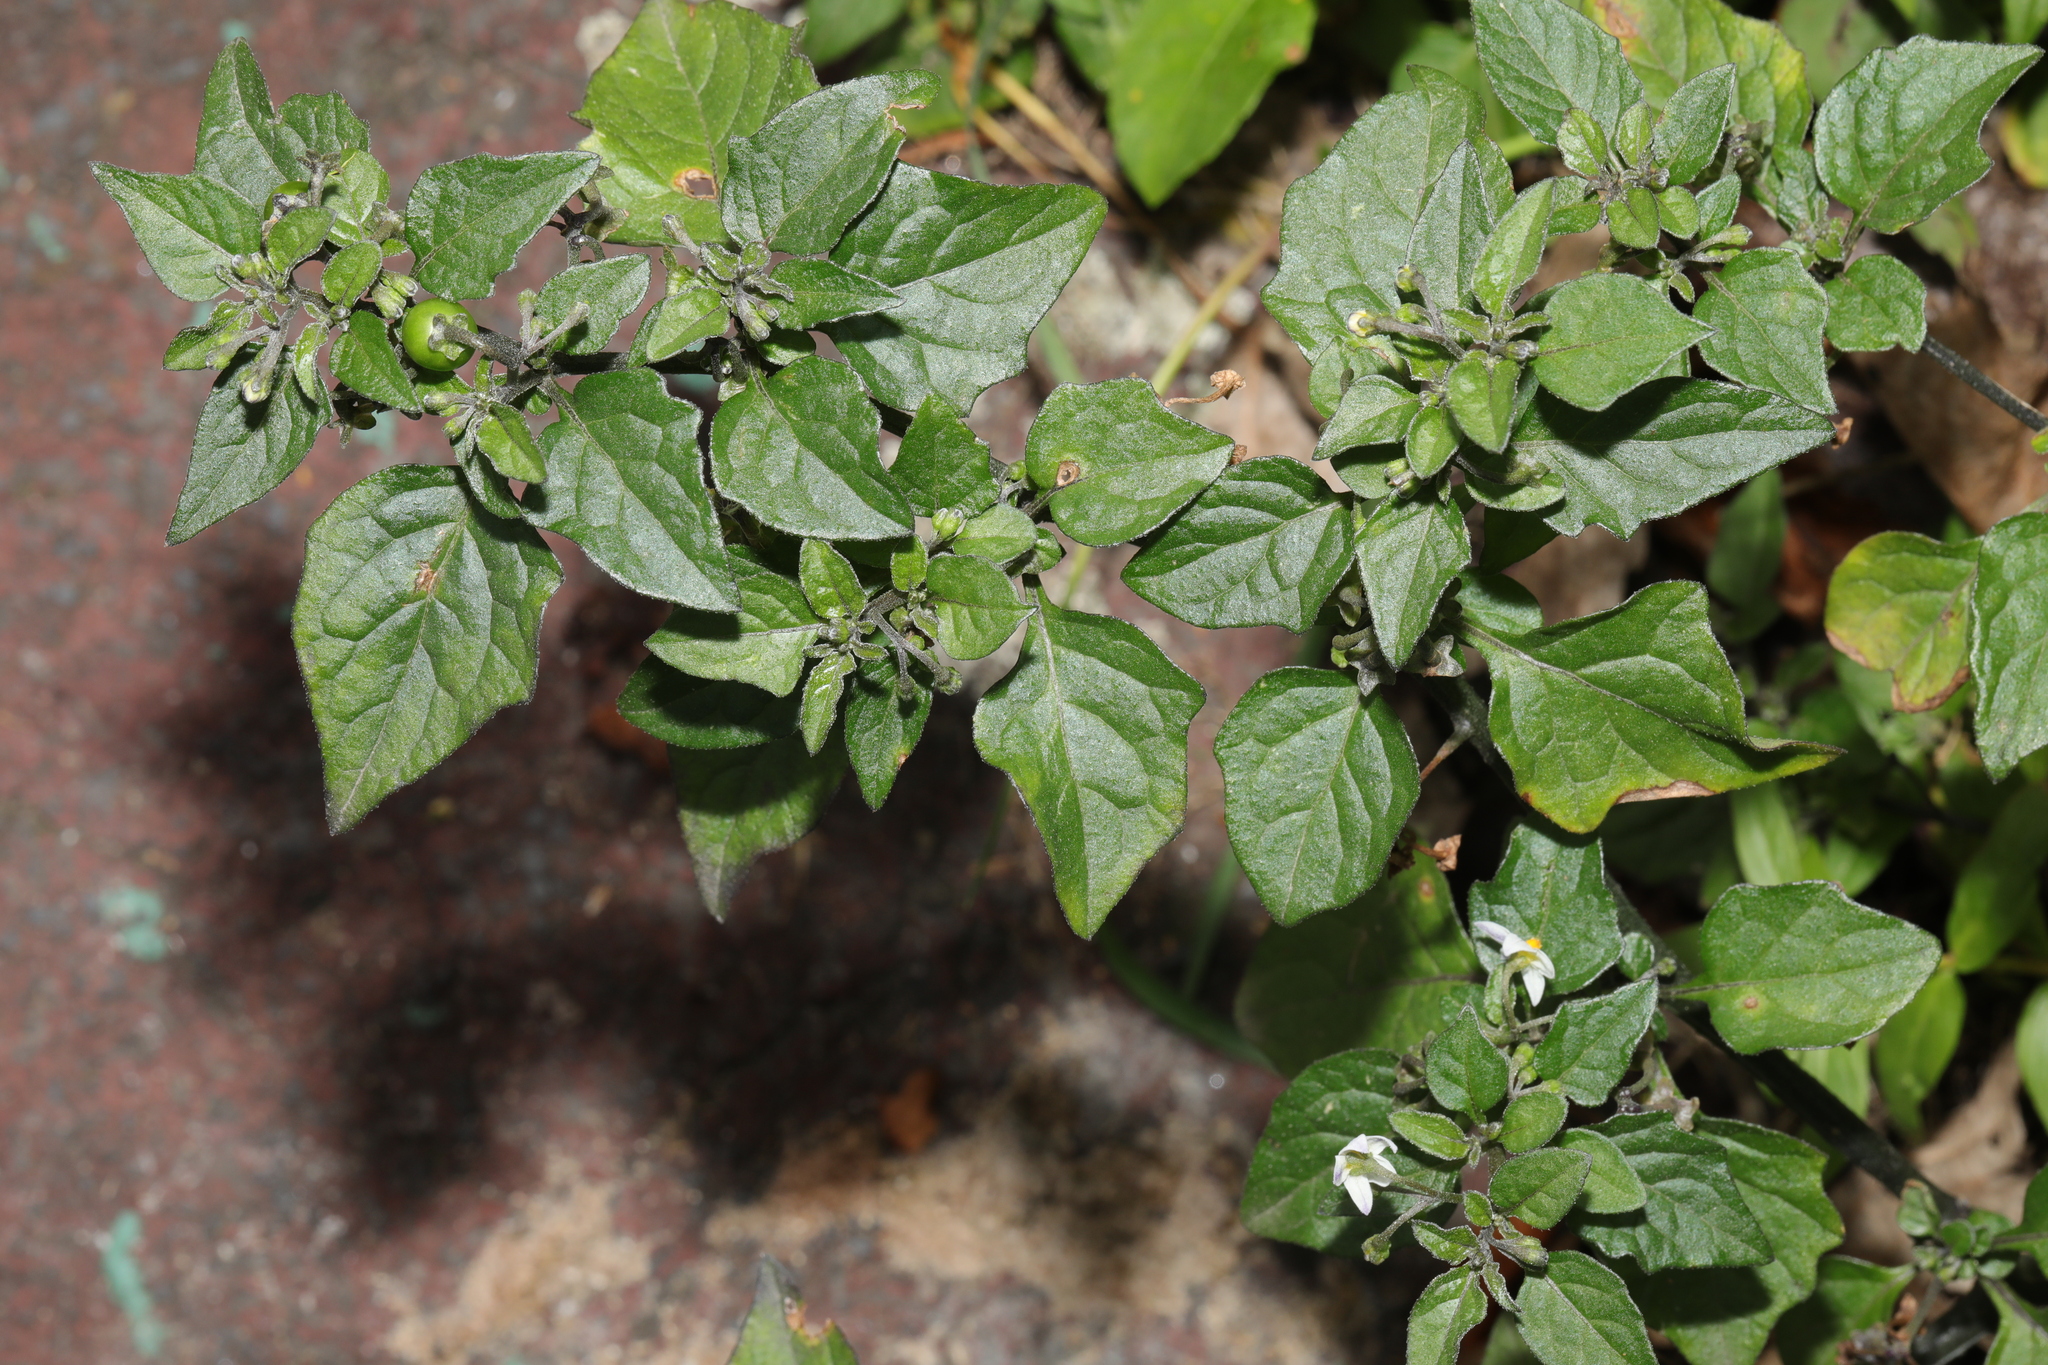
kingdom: Plantae
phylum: Tracheophyta
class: Magnoliopsida
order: Solanales
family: Solanaceae
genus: Solanum
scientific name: Solanum nigrum
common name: Black nightshade
